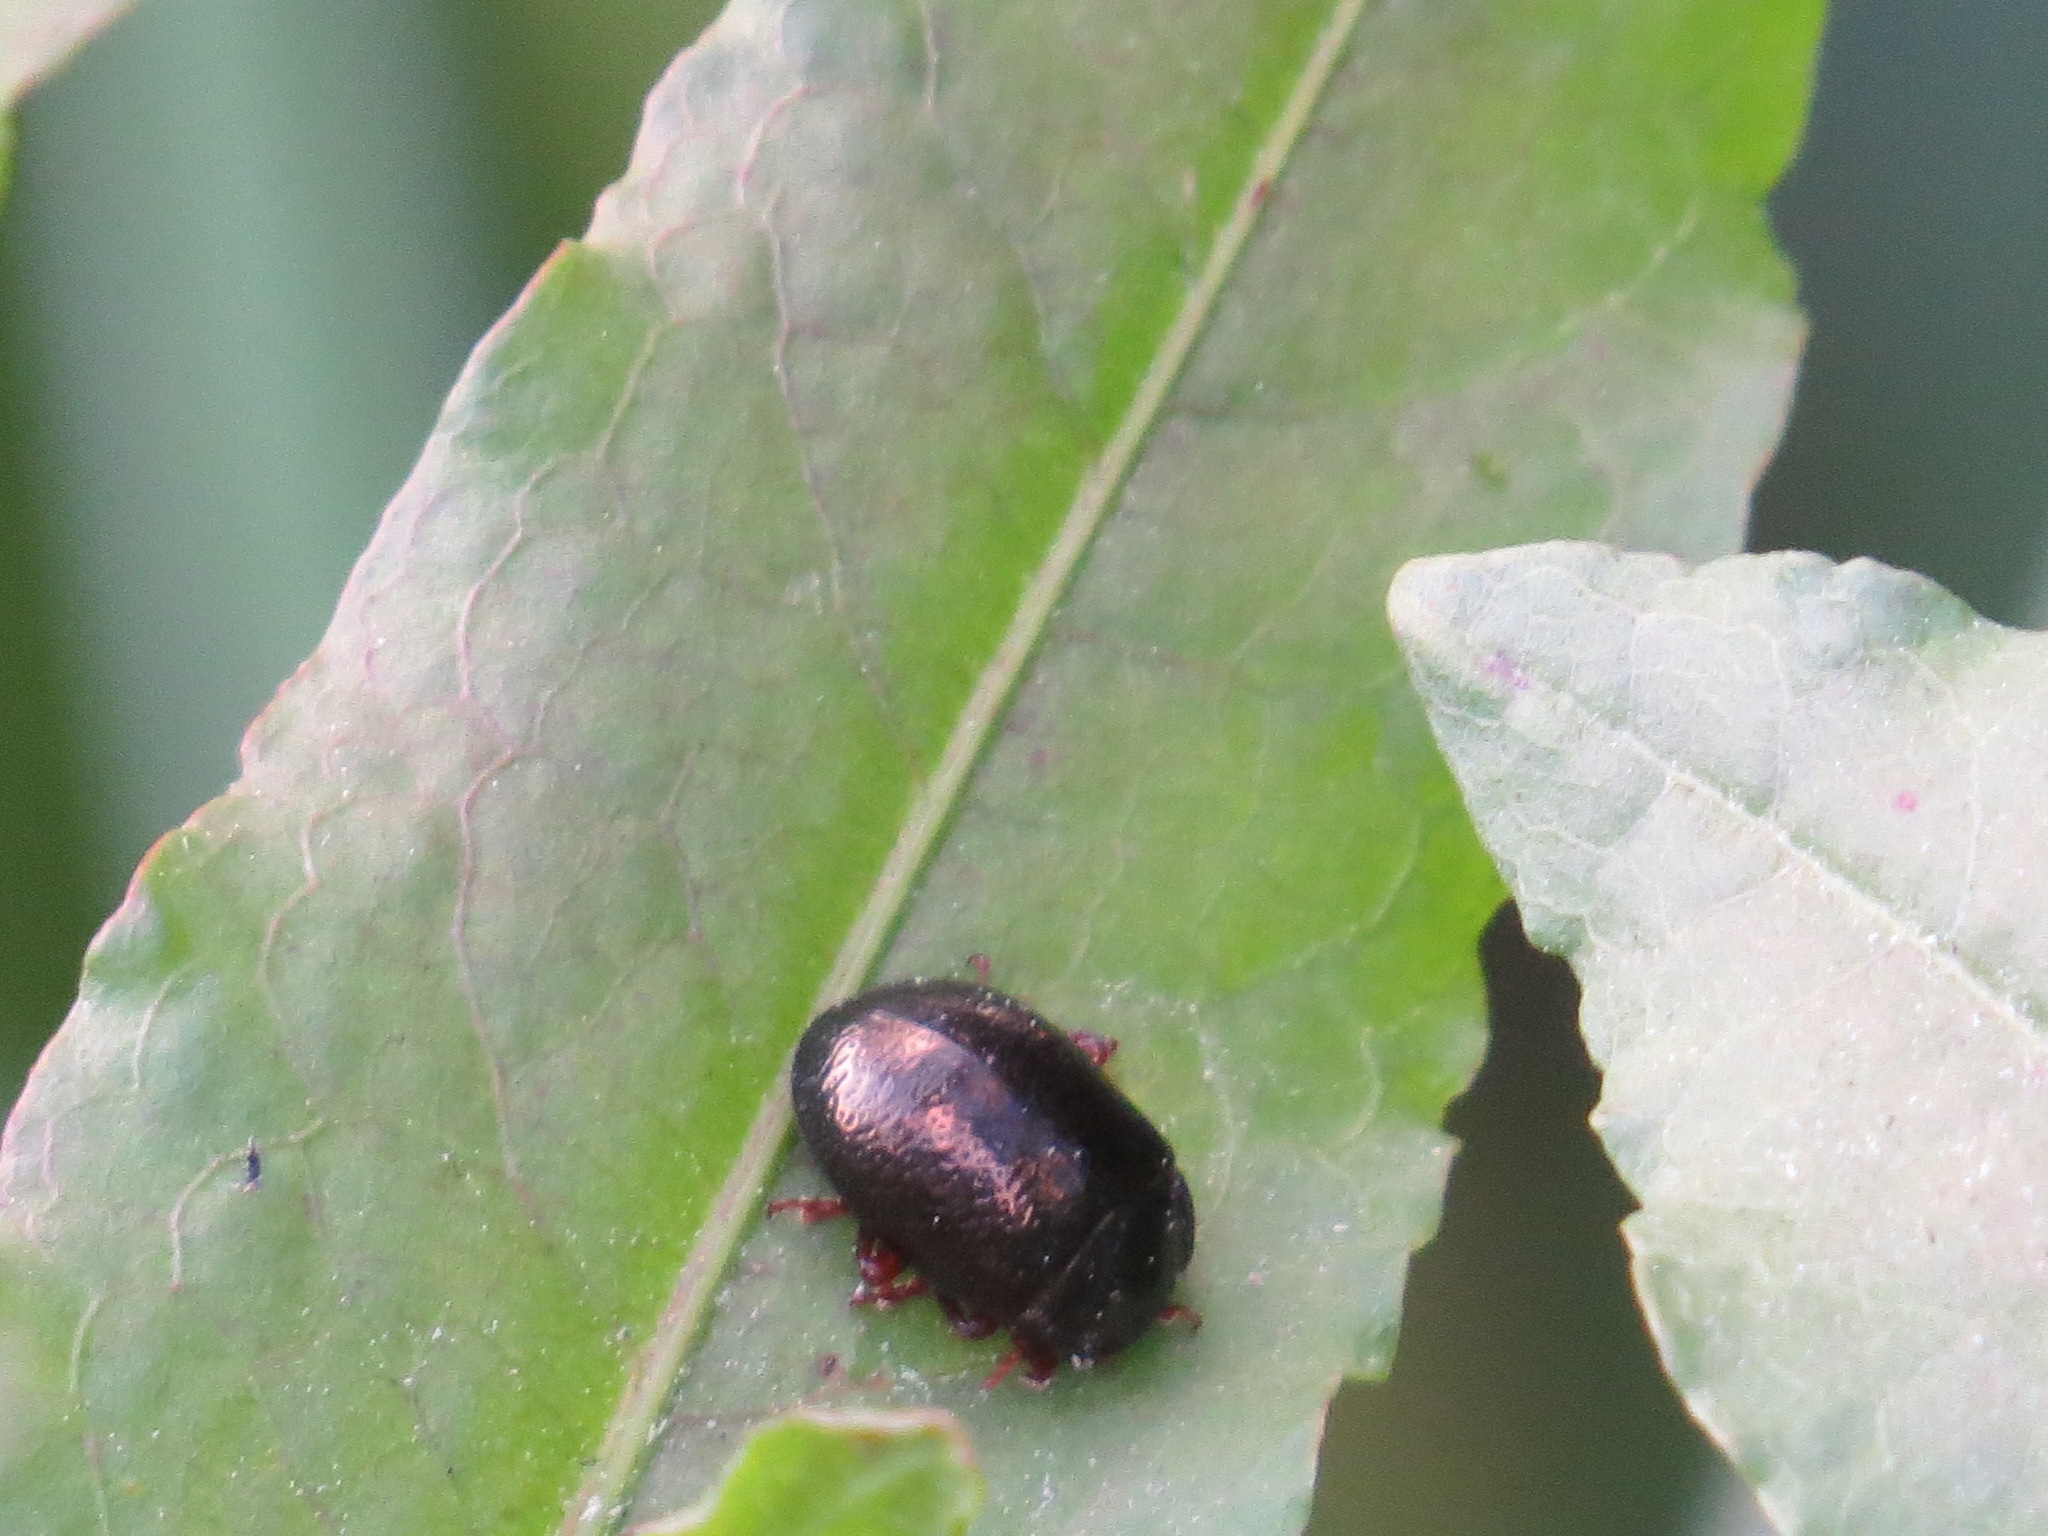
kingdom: Animalia
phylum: Arthropoda
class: Insecta
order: Coleoptera
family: Chrysomelidae
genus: Chrysolina
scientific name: Chrysolina bankii
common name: Leaf beetle
